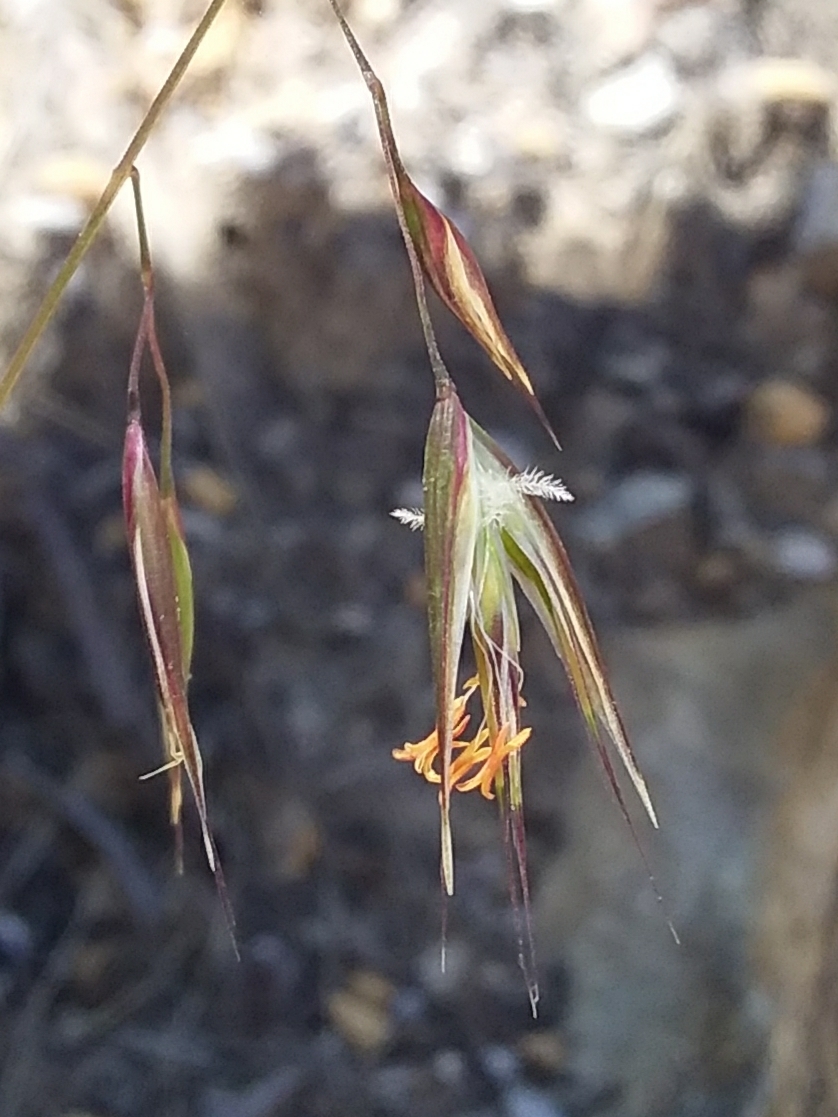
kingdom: Plantae
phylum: Tracheophyta
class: Liliopsida
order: Poales
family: Poaceae
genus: Rytidosperma
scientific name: Rytidosperma clelandii
